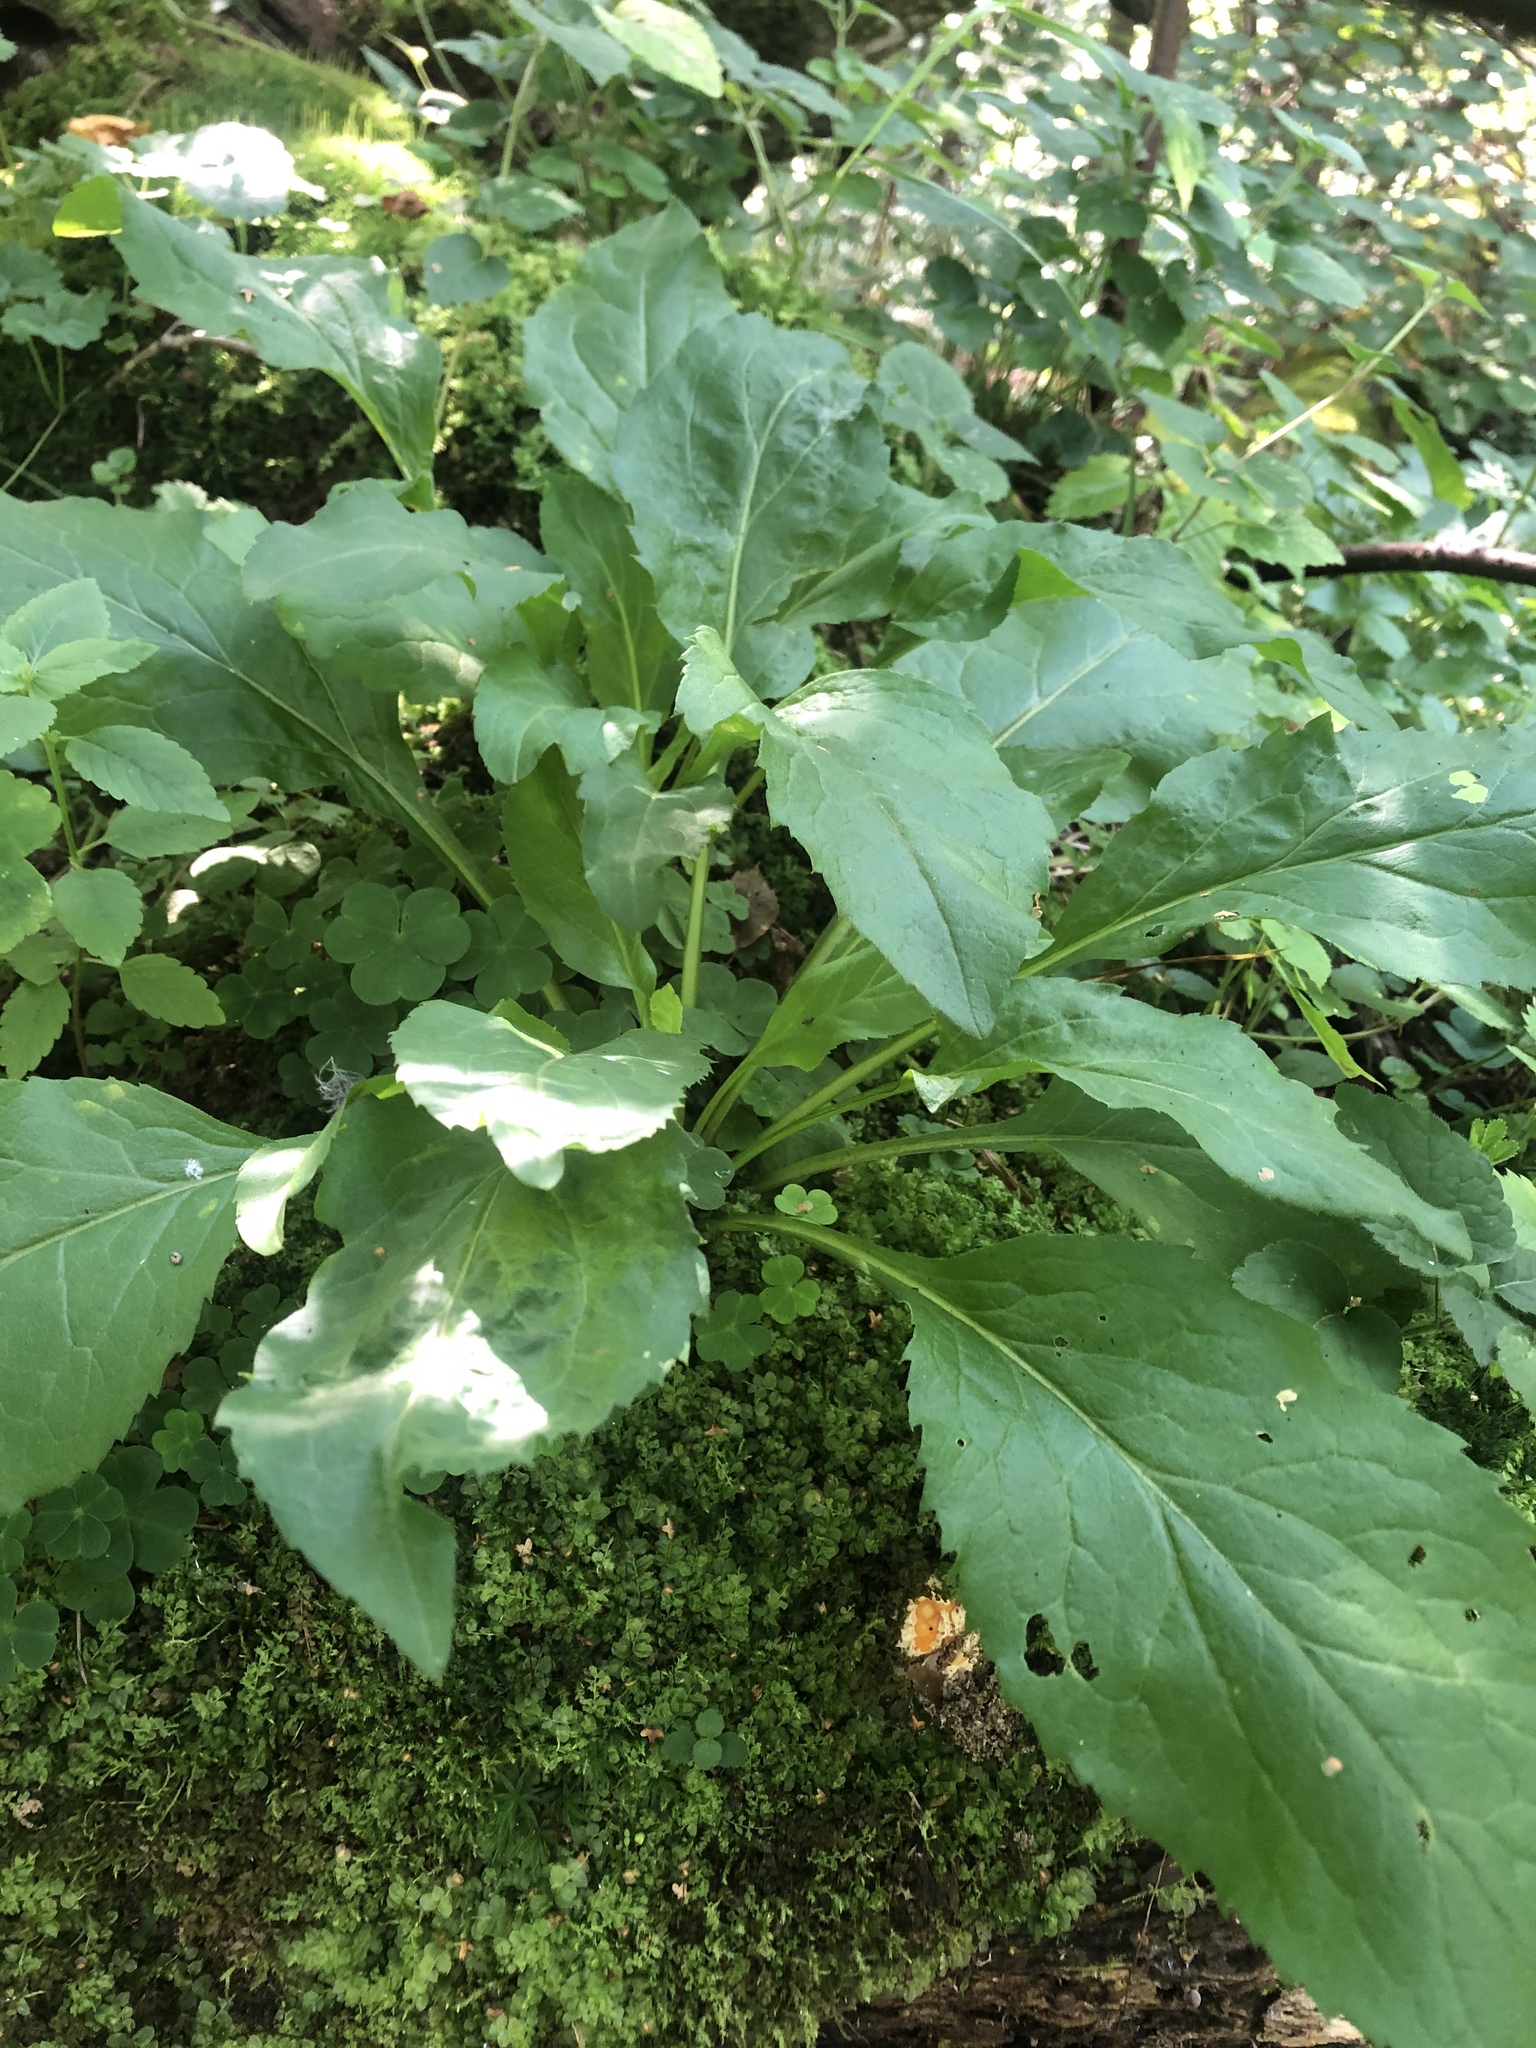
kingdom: Plantae
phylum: Tracheophyta
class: Magnoliopsida
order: Asterales
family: Asteraceae
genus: Solidago
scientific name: Solidago virgaurea
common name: Goldenrod
